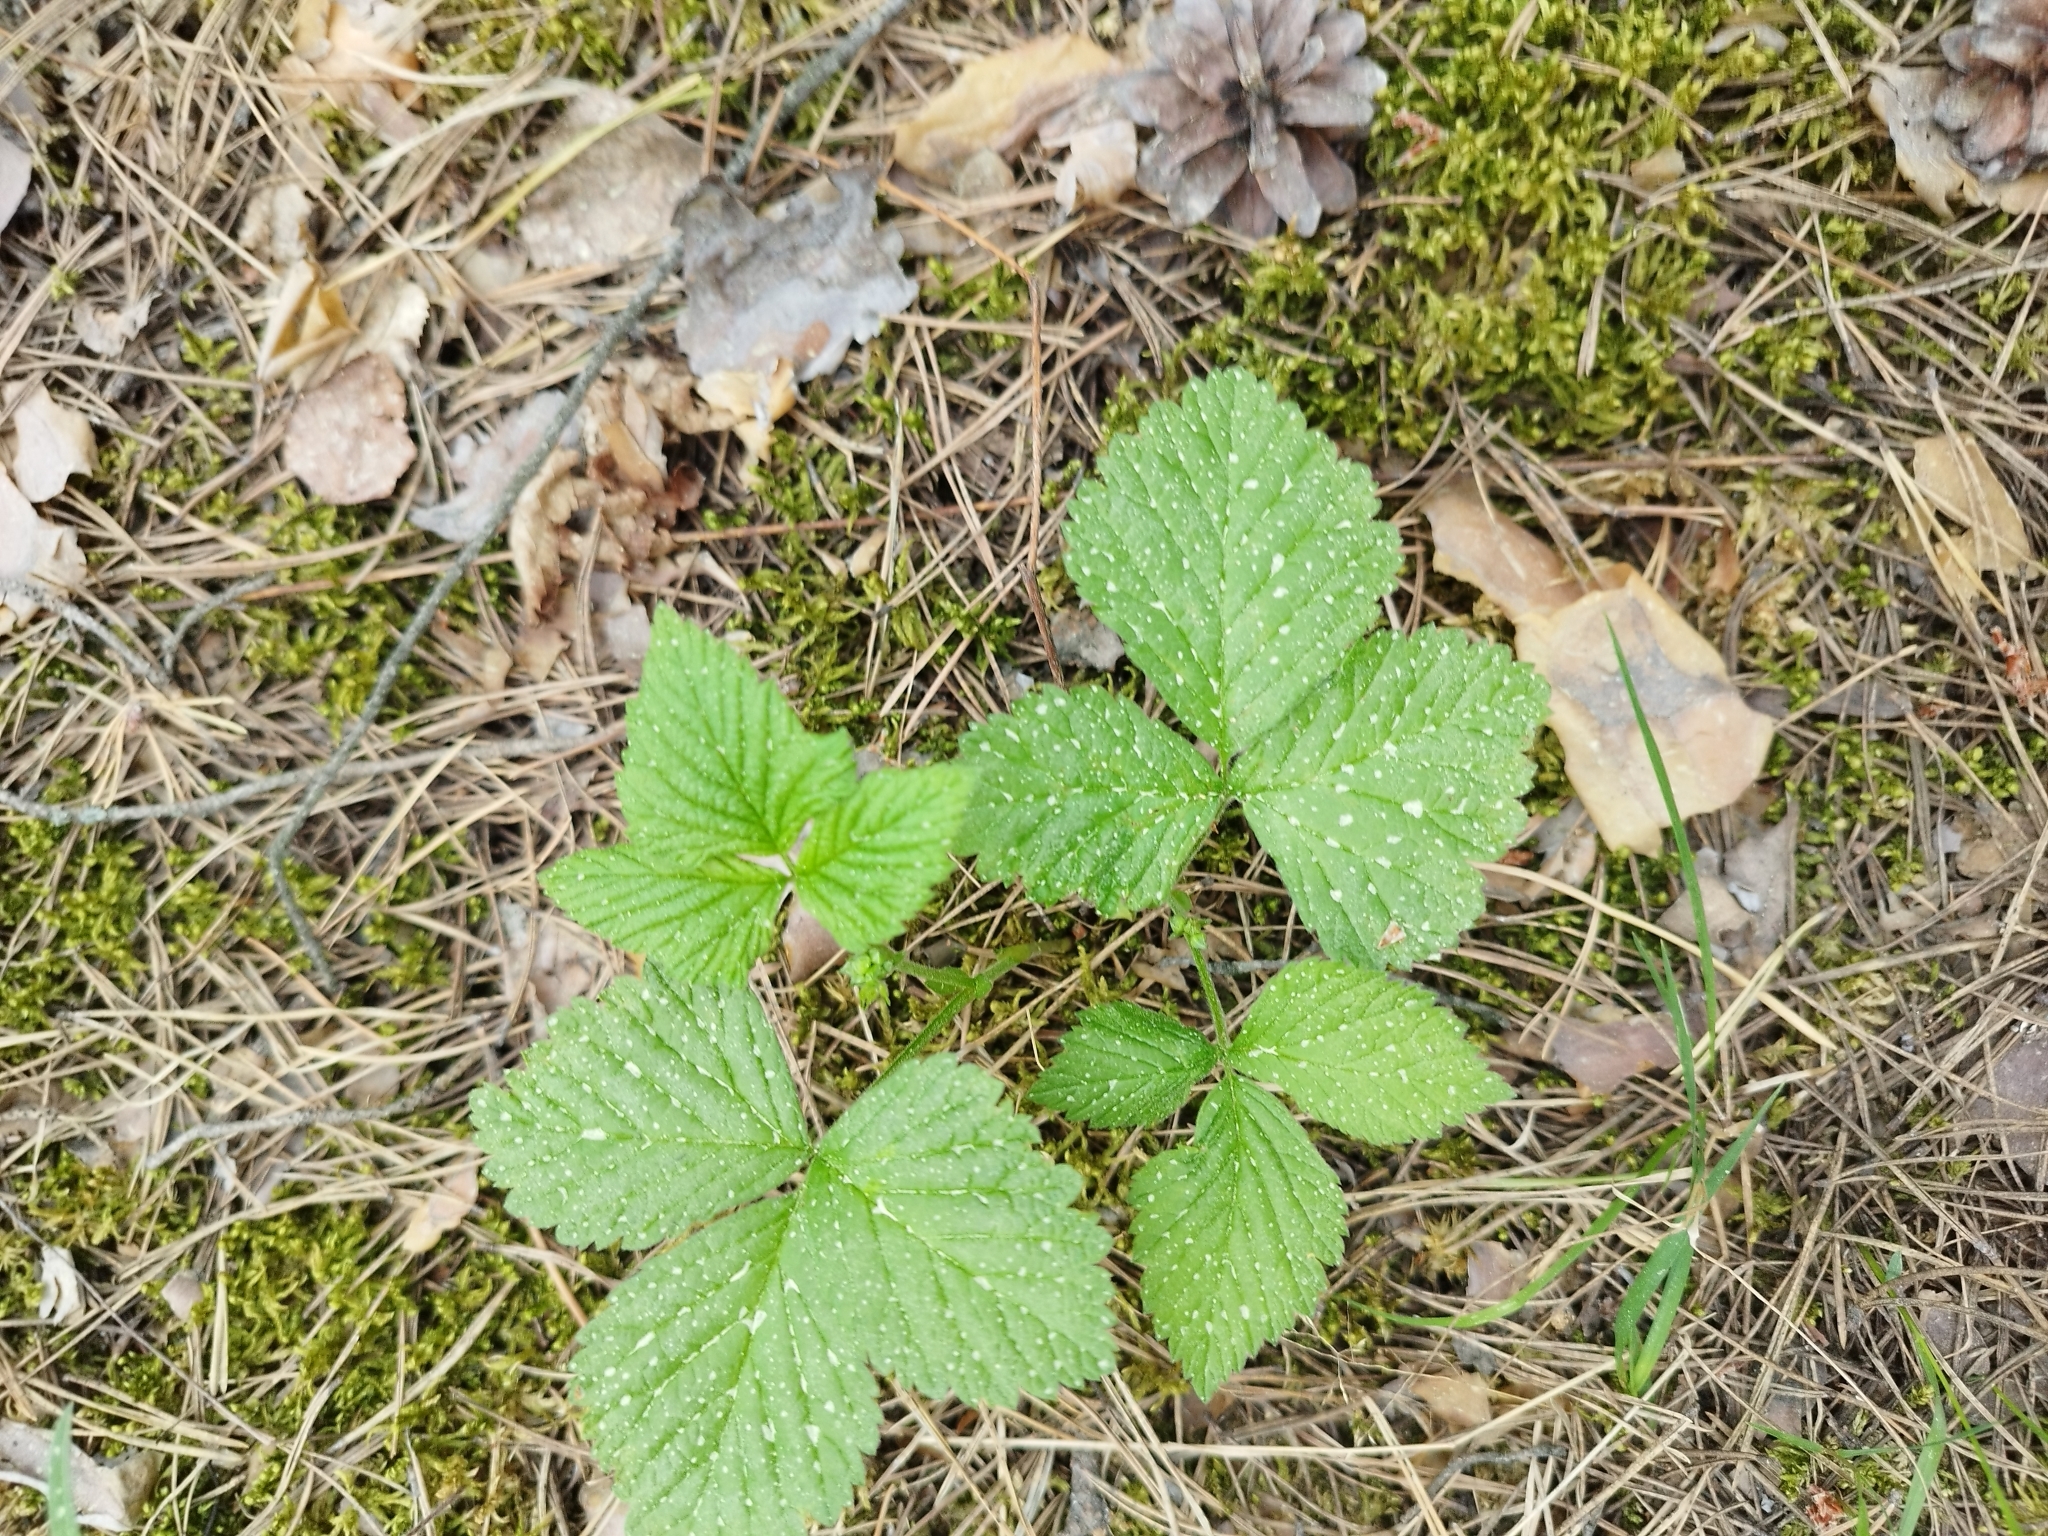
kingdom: Plantae
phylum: Tracheophyta
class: Magnoliopsida
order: Rosales
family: Rosaceae
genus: Rubus
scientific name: Rubus saxatilis
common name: Stone bramble
